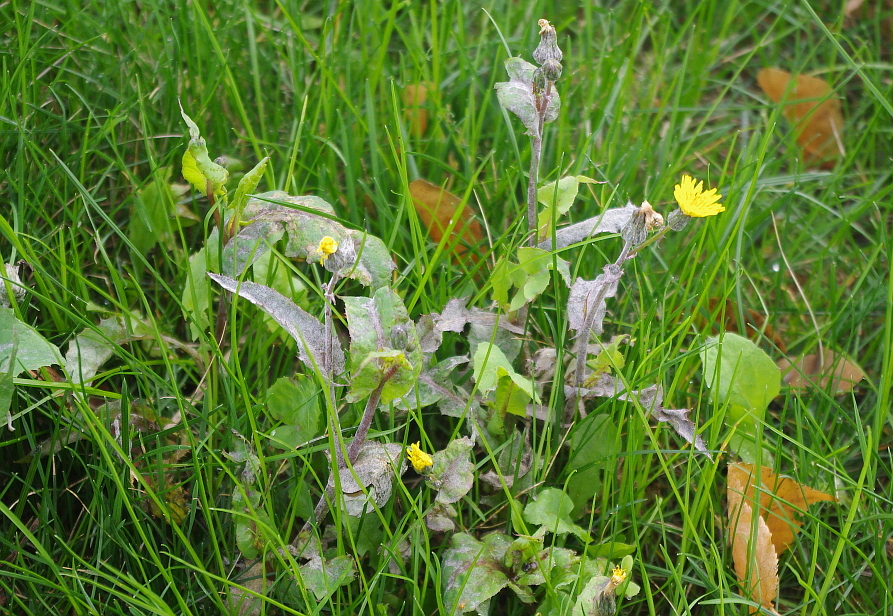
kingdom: Fungi
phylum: Ascomycota
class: Leotiomycetes
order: Helotiales
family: Erysiphaceae
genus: Golovinomyces
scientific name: Golovinomyces sonchicola
